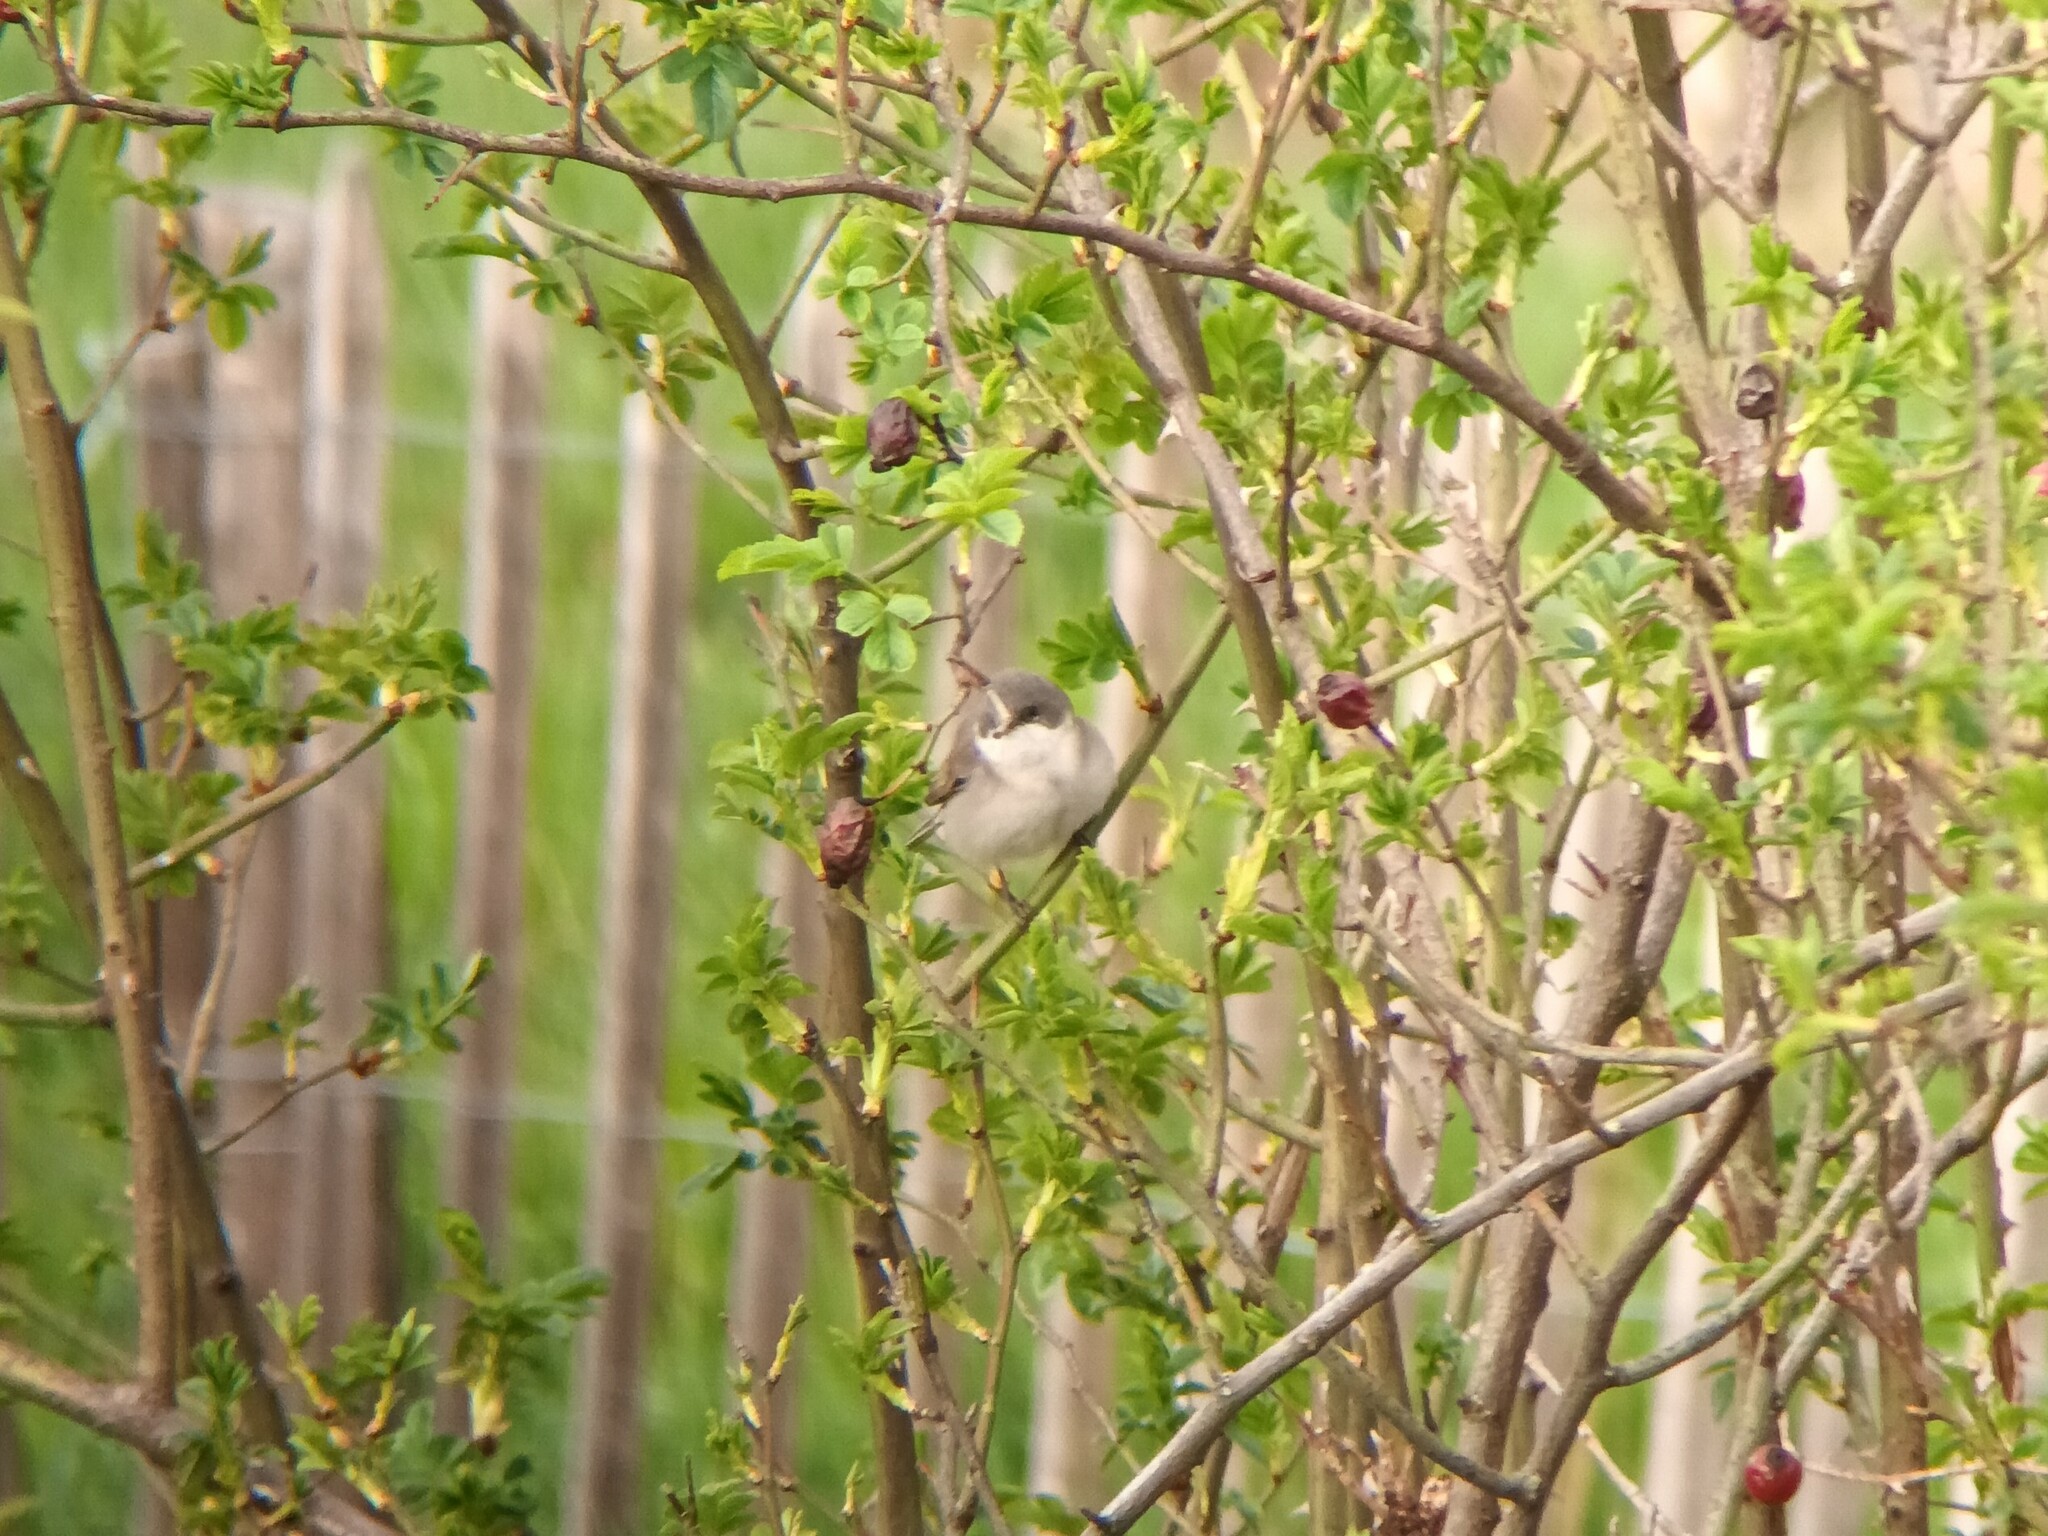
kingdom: Animalia
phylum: Chordata
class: Aves
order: Passeriformes
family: Sylviidae
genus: Sylvia
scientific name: Sylvia curruca
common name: Lesser whitethroat
